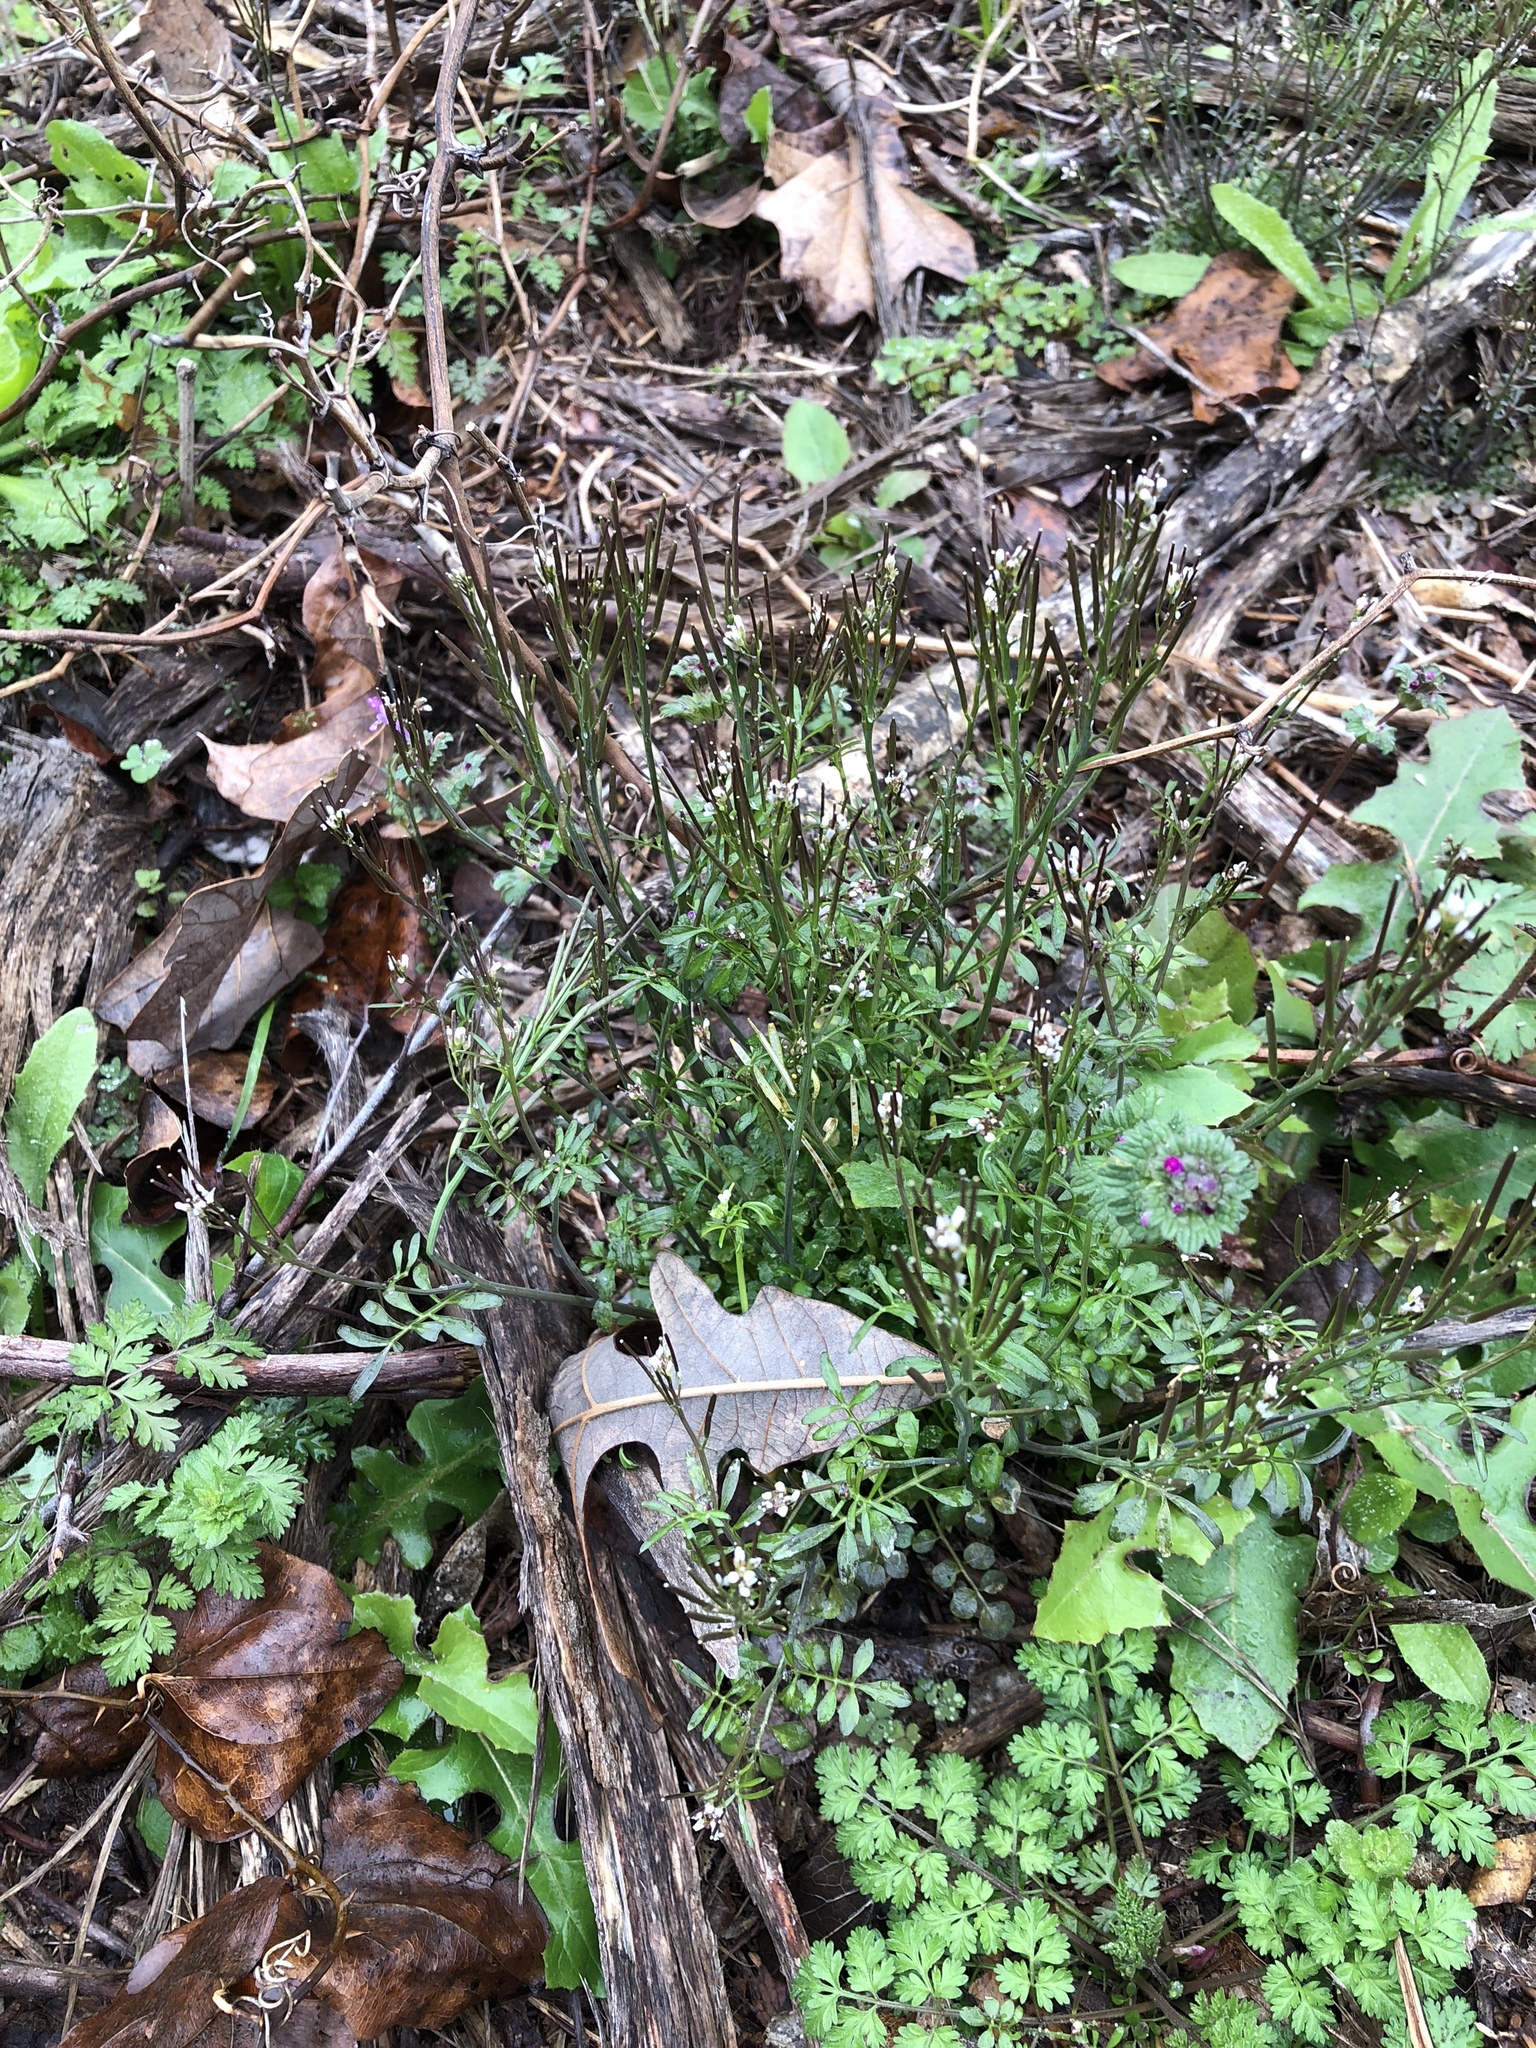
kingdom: Plantae
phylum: Tracheophyta
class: Magnoliopsida
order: Brassicales
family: Brassicaceae
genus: Cardamine
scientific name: Cardamine hirsuta
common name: Hairy bittercress
